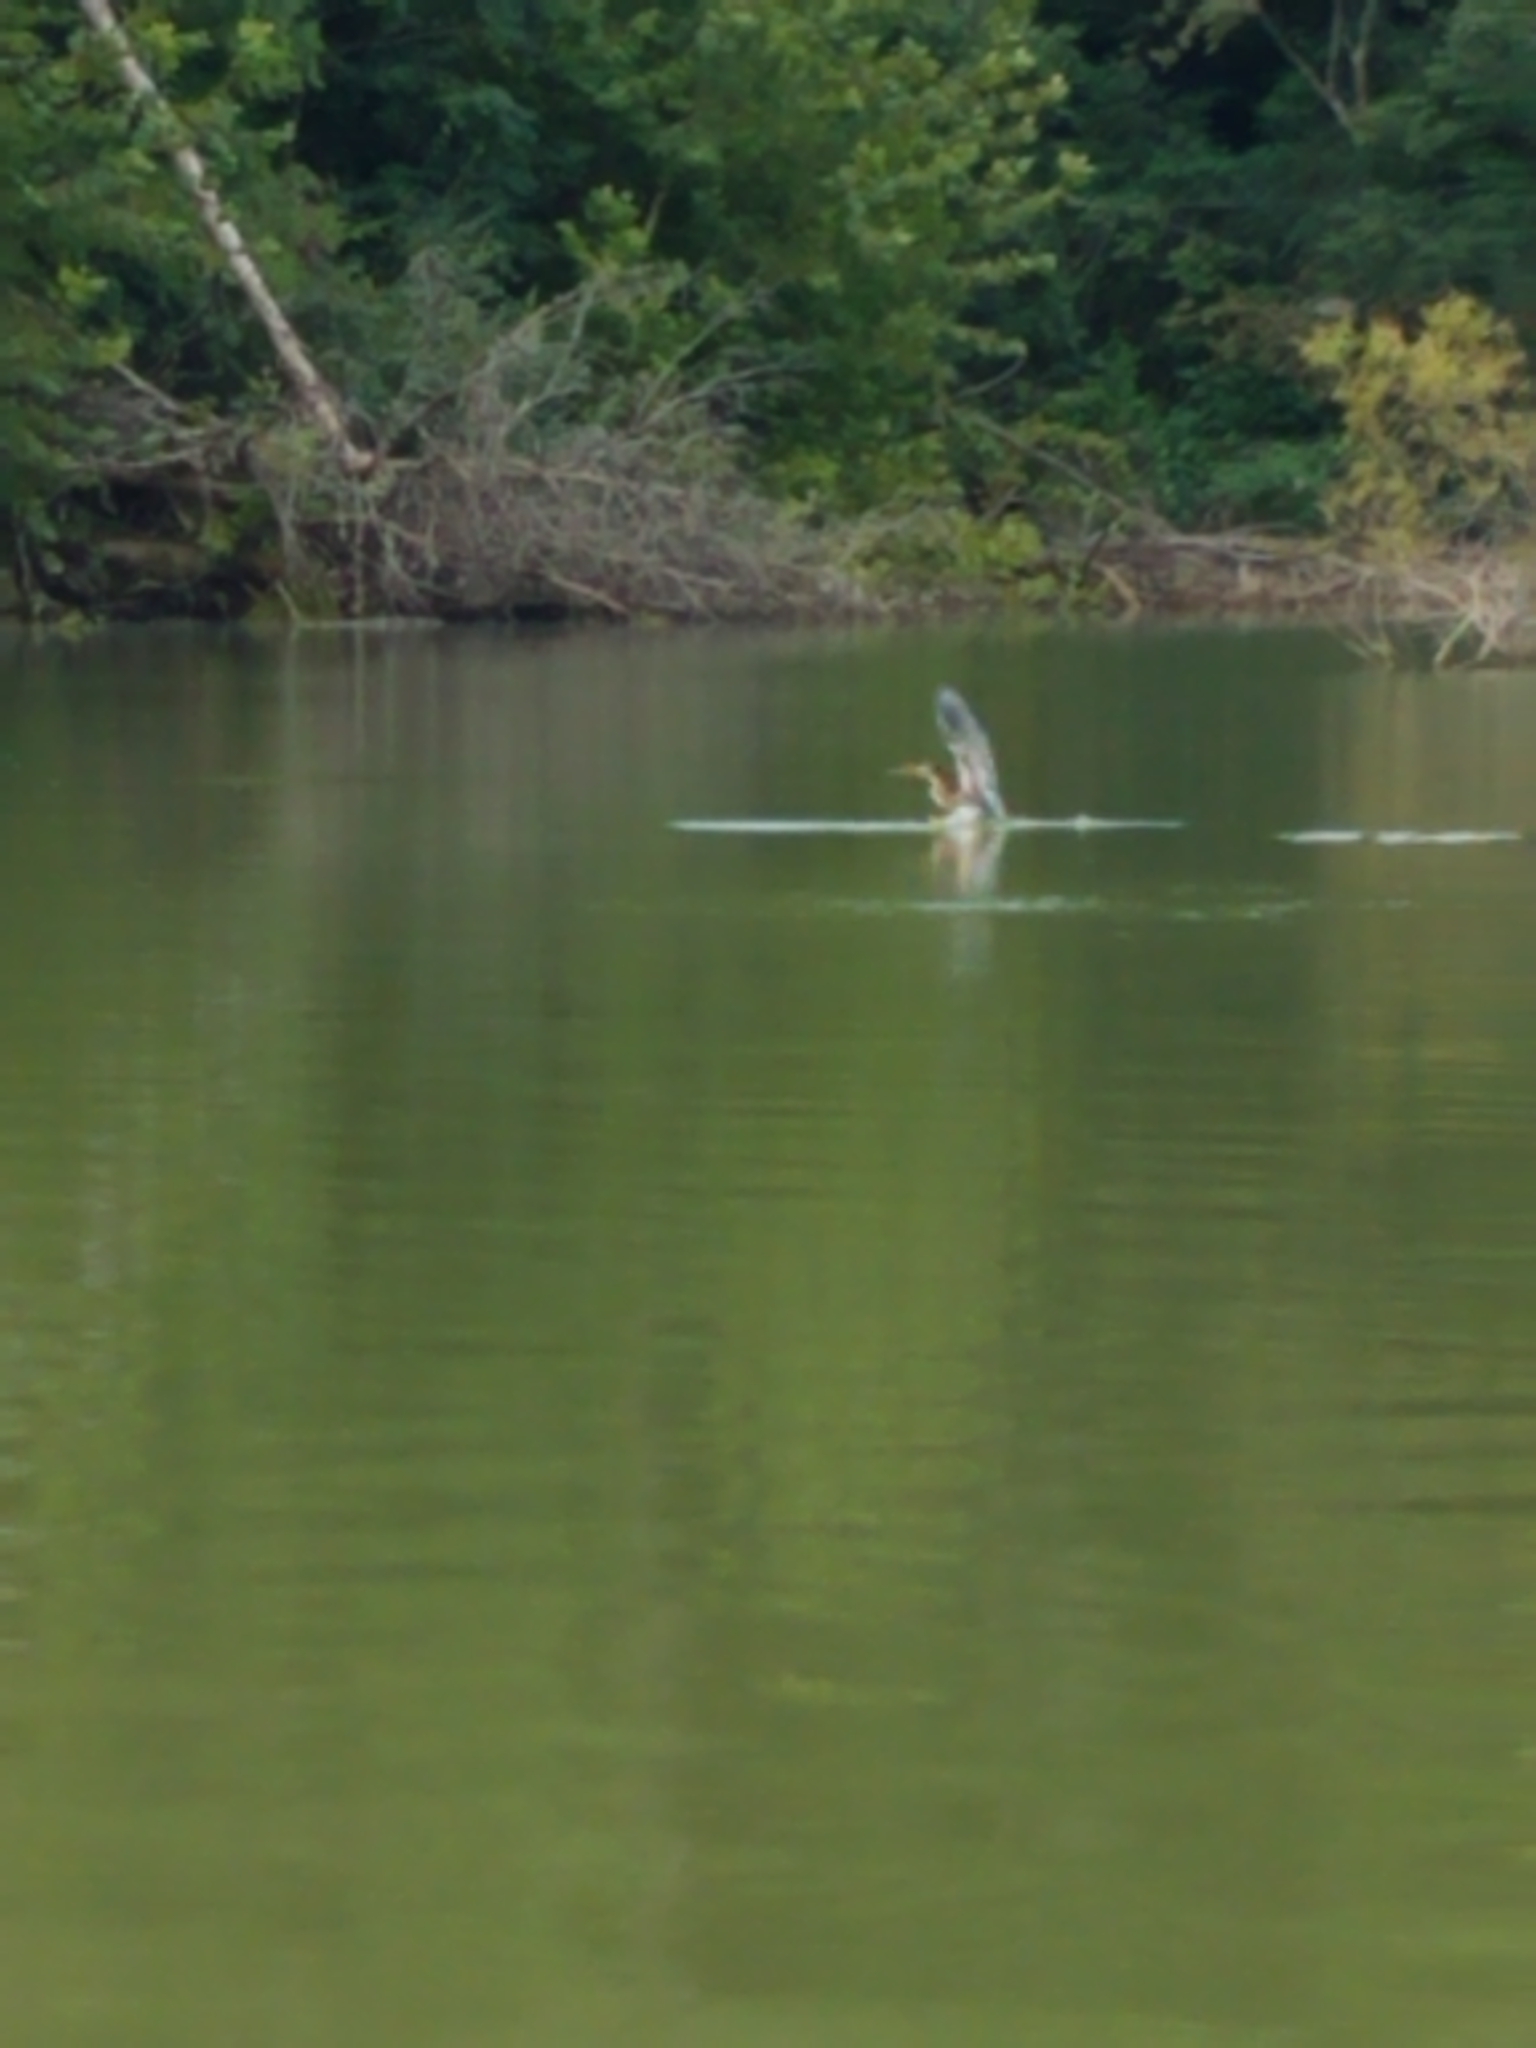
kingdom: Animalia
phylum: Chordata
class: Aves
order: Pelecaniformes
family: Ardeidae
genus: Butorides
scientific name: Butorides virescens
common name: Green heron
